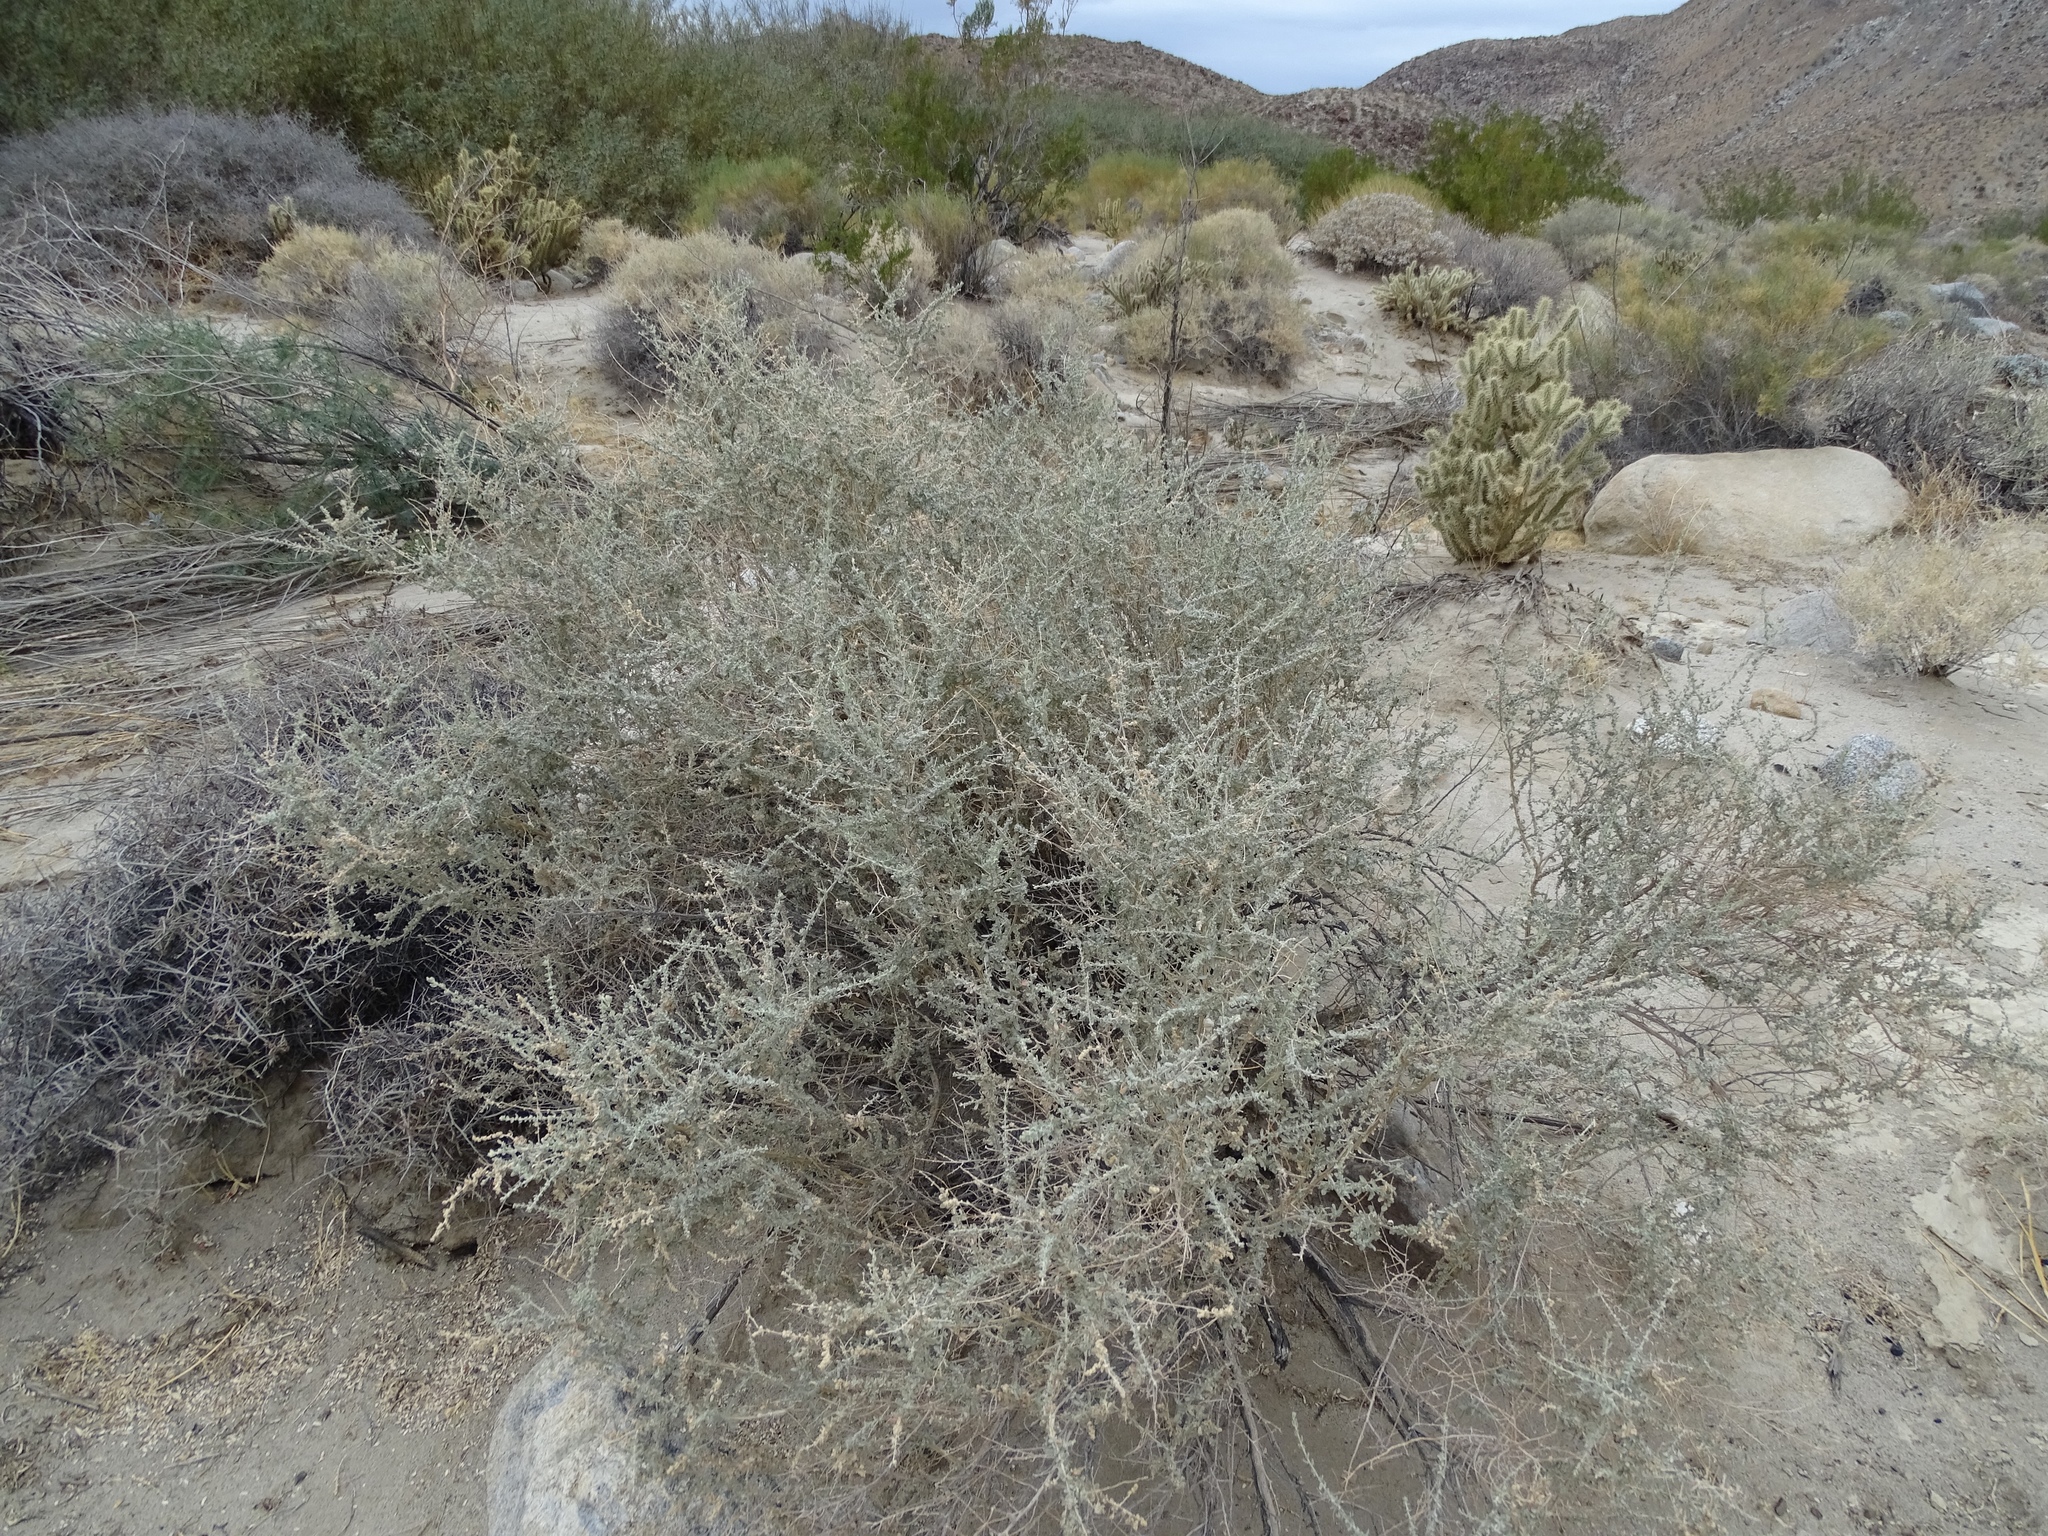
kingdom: Plantae
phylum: Tracheophyta
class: Magnoliopsida
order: Caryophyllales
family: Amaranthaceae
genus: Atriplex
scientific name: Atriplex polycarpa
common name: Desert saltbush
